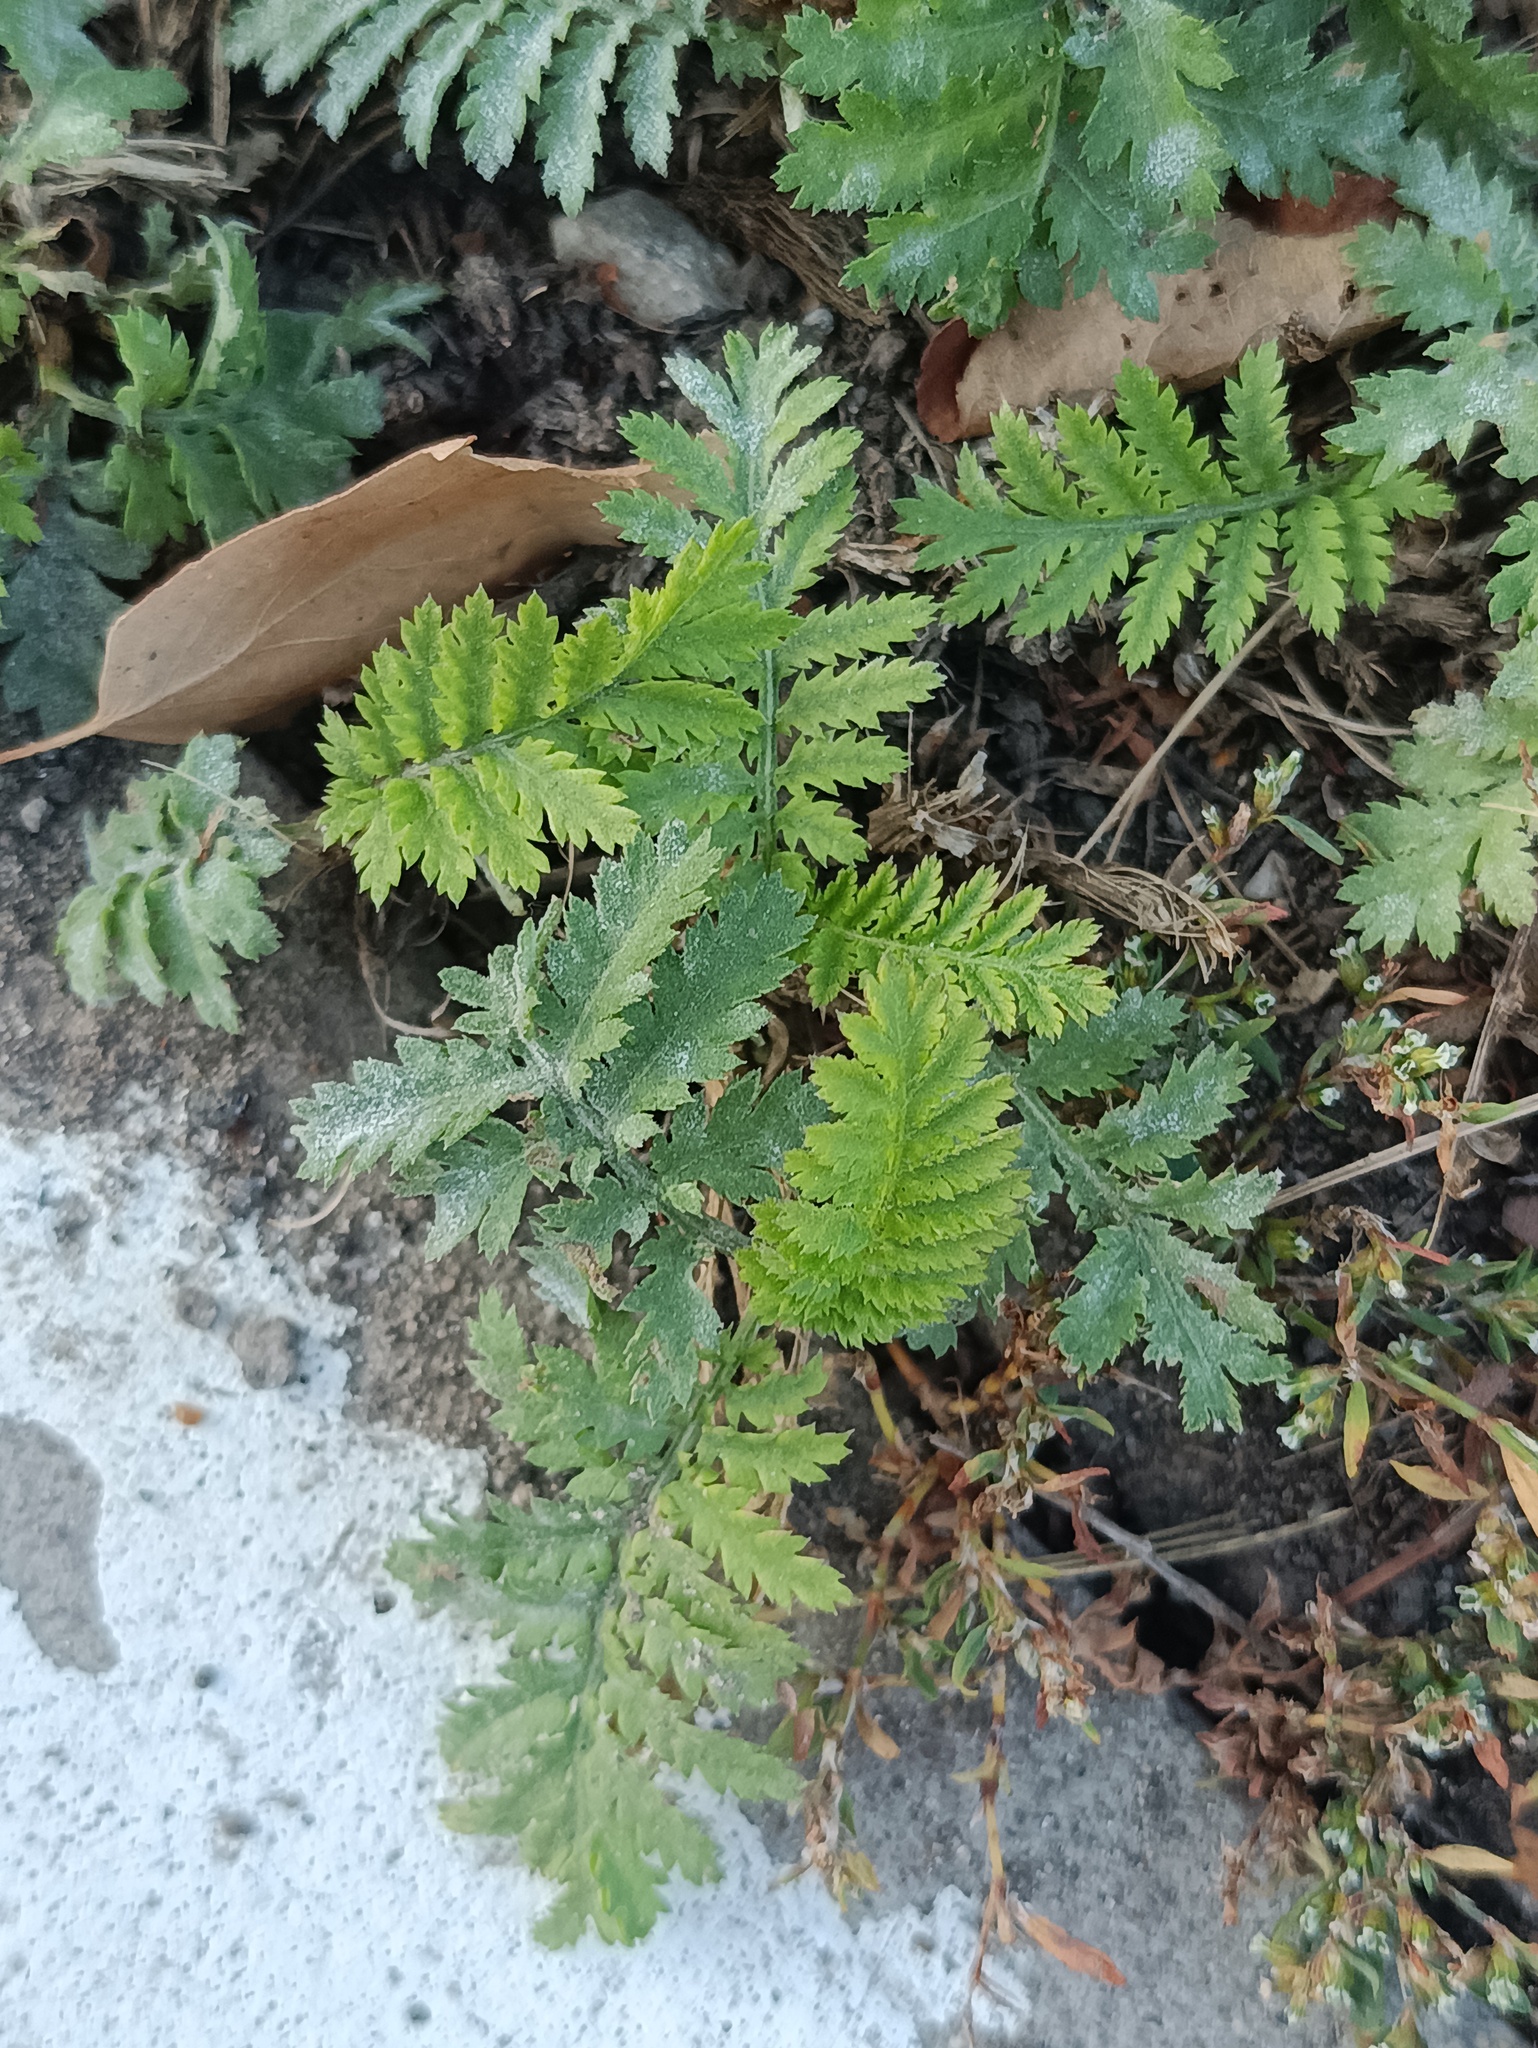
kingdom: Plantae
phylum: Tracheophyta
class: Magnoliopsida
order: Asterales
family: Asteraceae
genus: Tanacetum
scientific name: Tanacetum vulgare
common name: Common tansy
